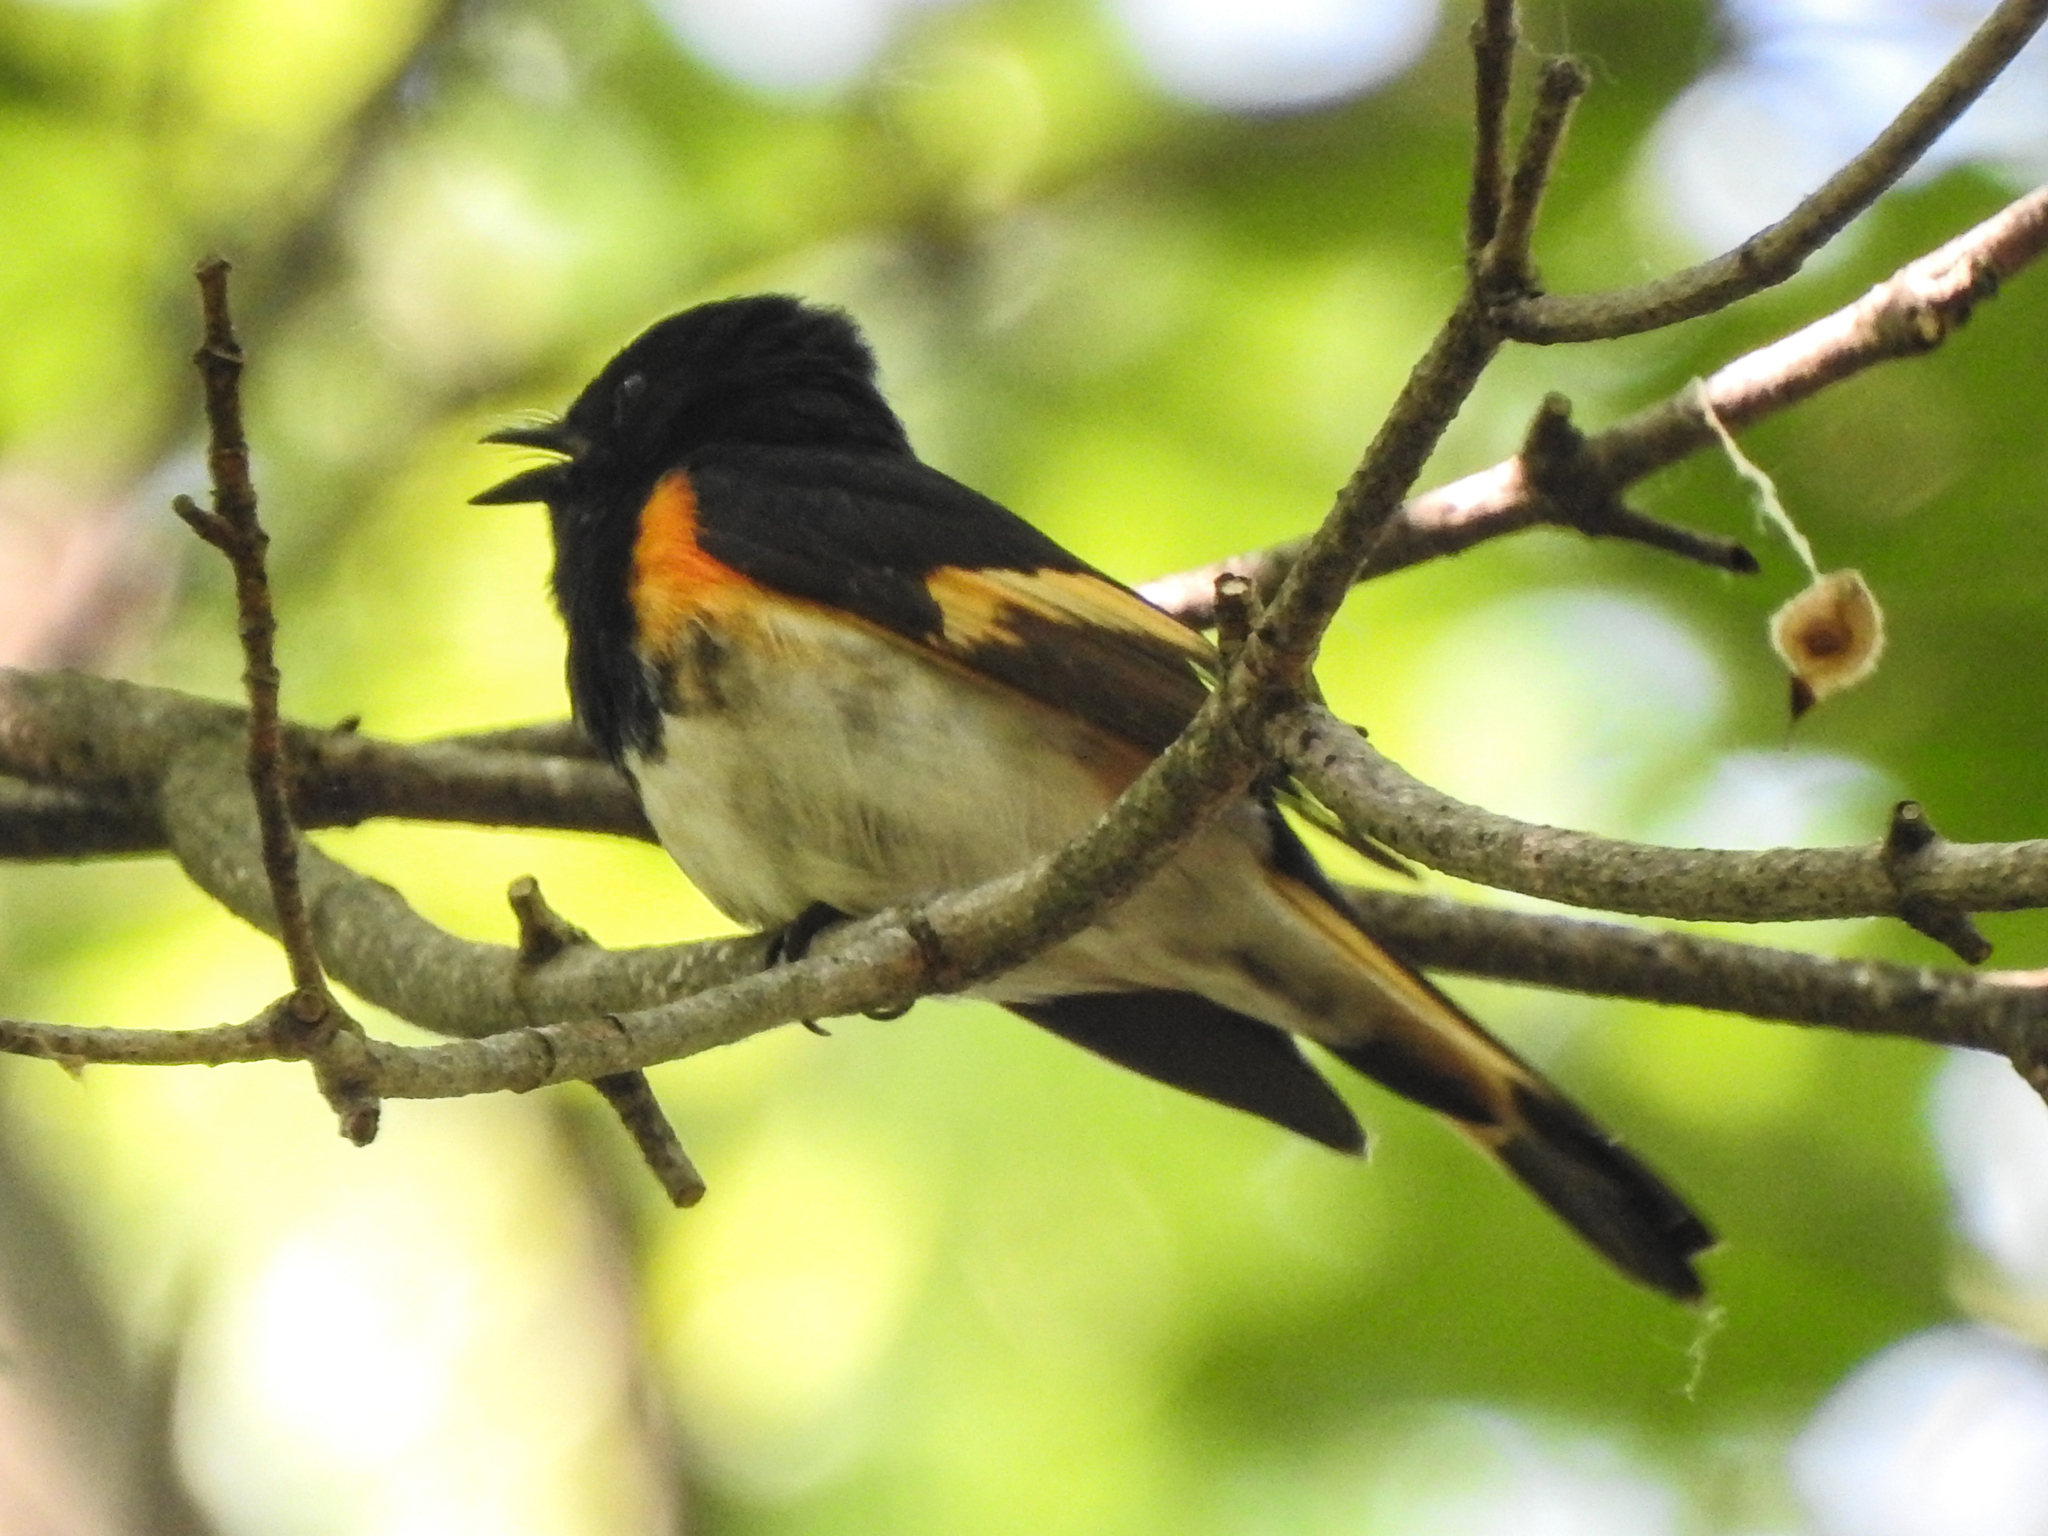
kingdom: Animalia
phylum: Chordata
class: Aves
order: Passeriformes
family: Parulidae
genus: Setophaga
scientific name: Setophaga ruticilla
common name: American redstart
